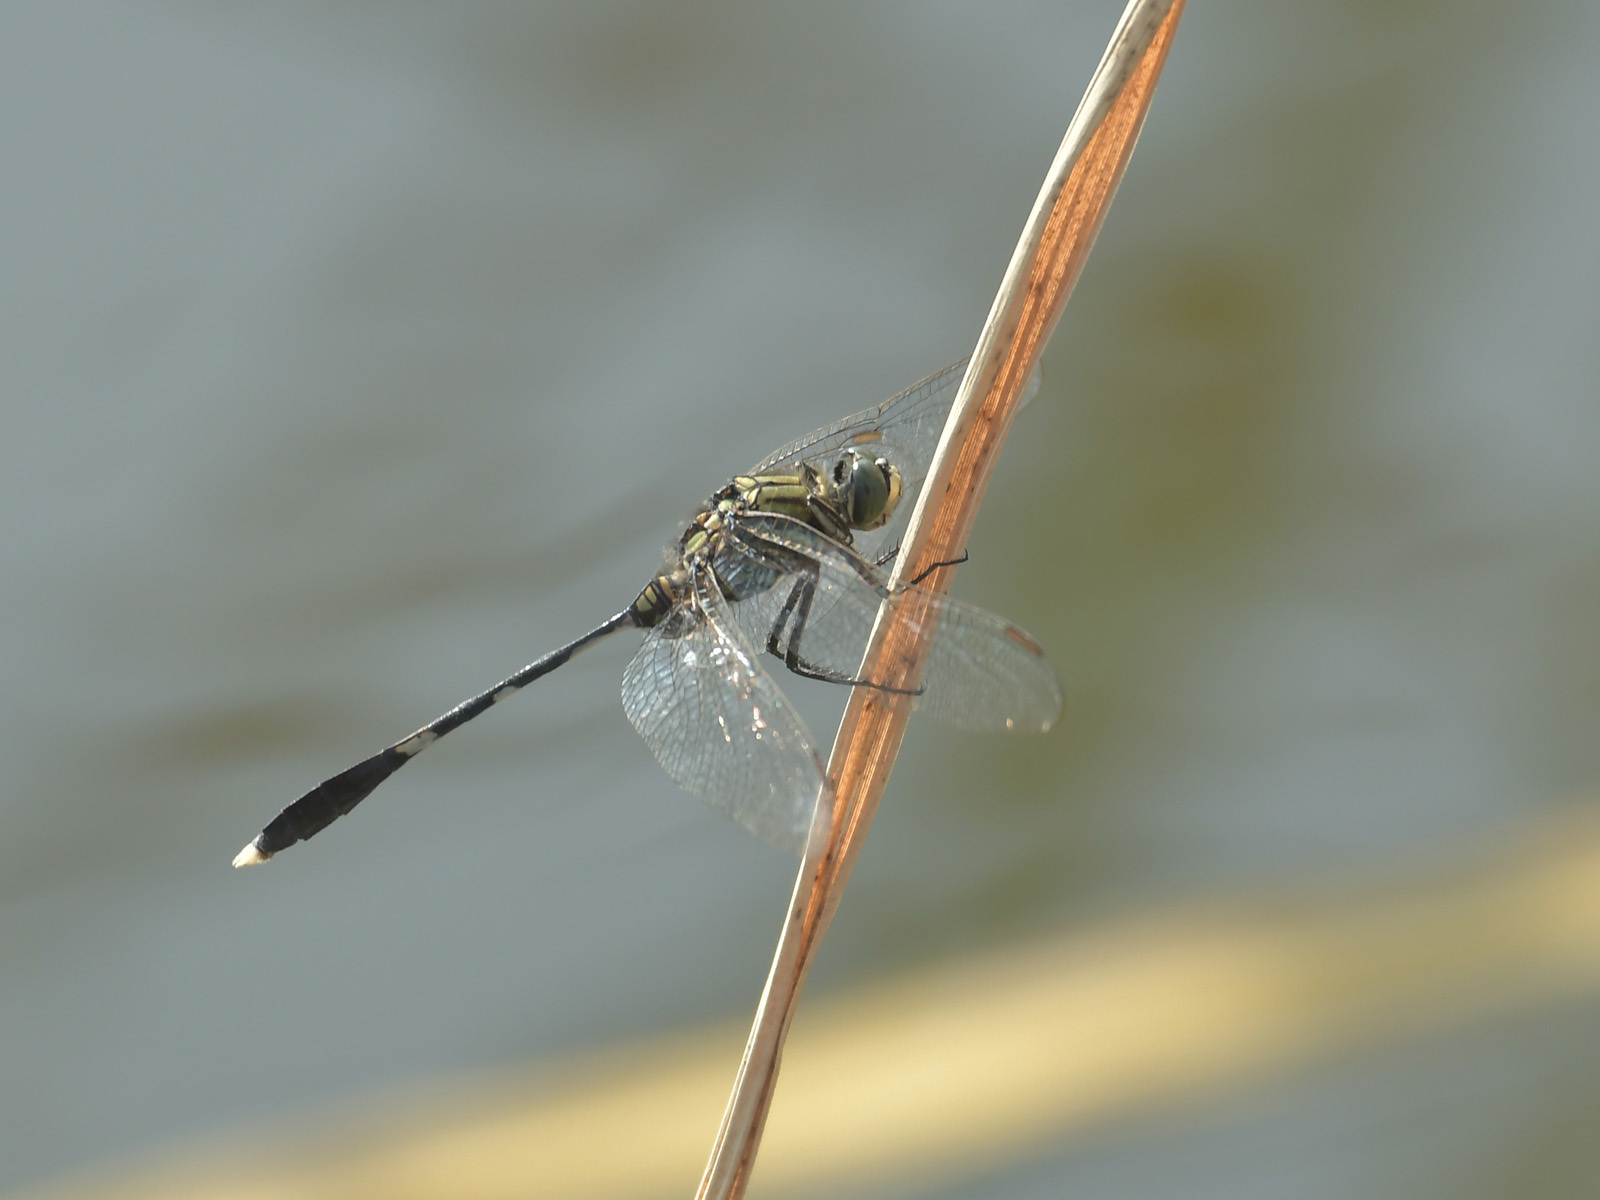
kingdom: Animalia
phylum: Arthropoda
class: Insecta
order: Odonata
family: Libellulidae
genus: Orthetrum
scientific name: Orthetrum sabina
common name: Slender skimmer
